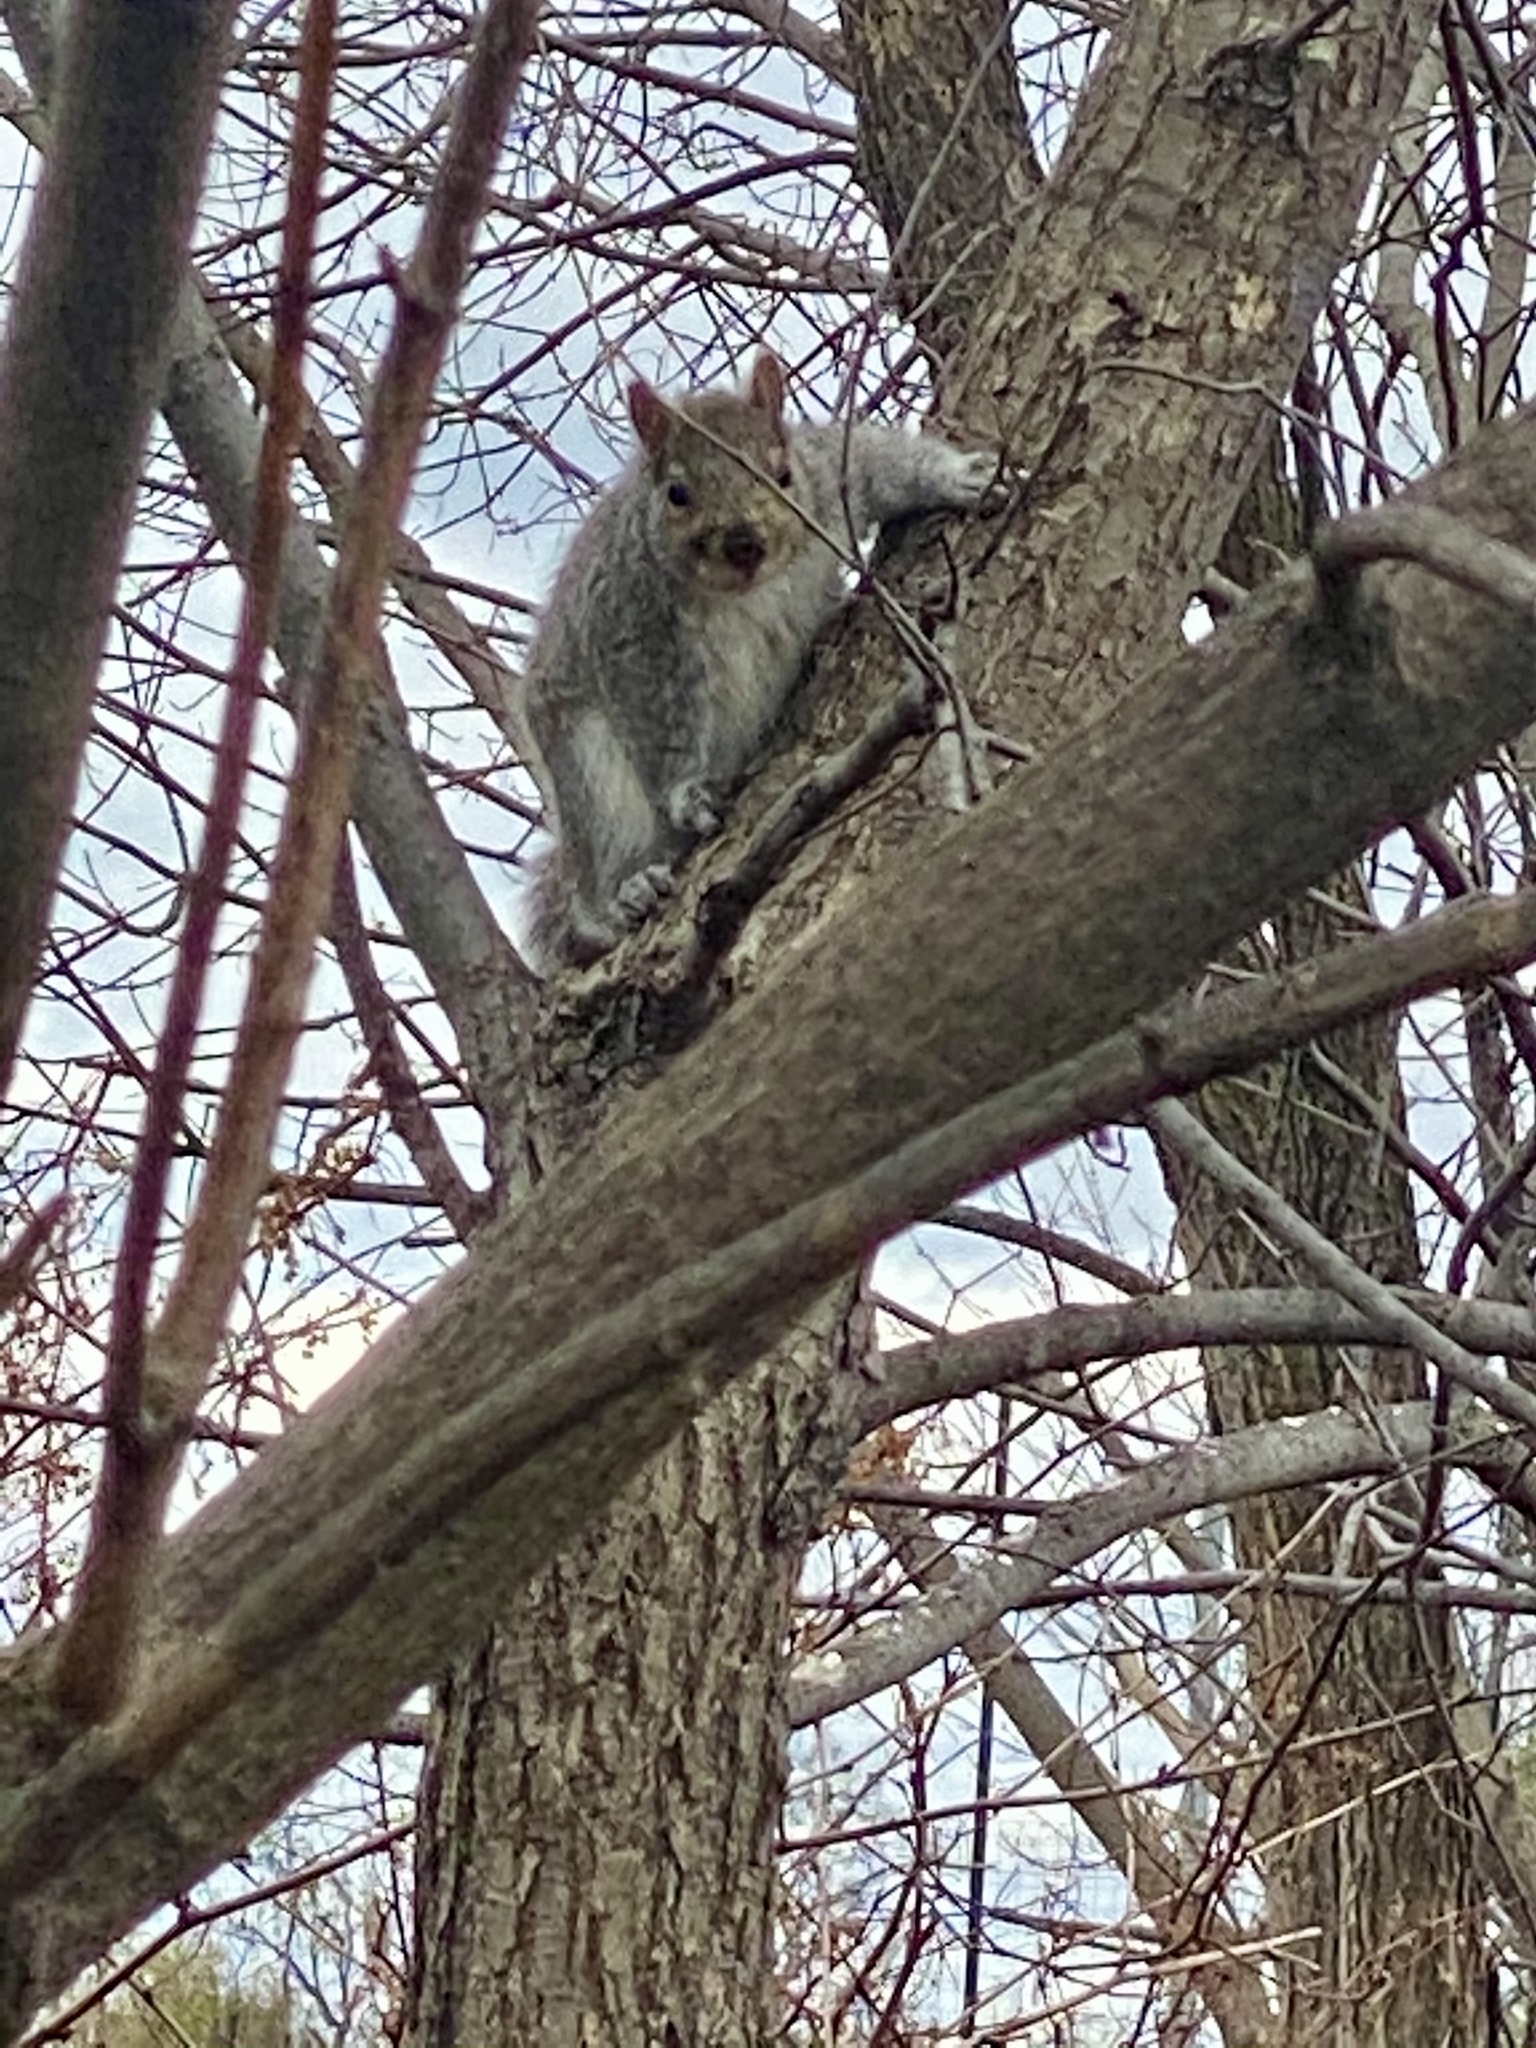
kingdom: Animalia
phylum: Chordata
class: Mammalia
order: Rodentia
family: Sciuridae
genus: Sciurus
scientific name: Sciurus carolinensis
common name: Eastern gray squirrel
